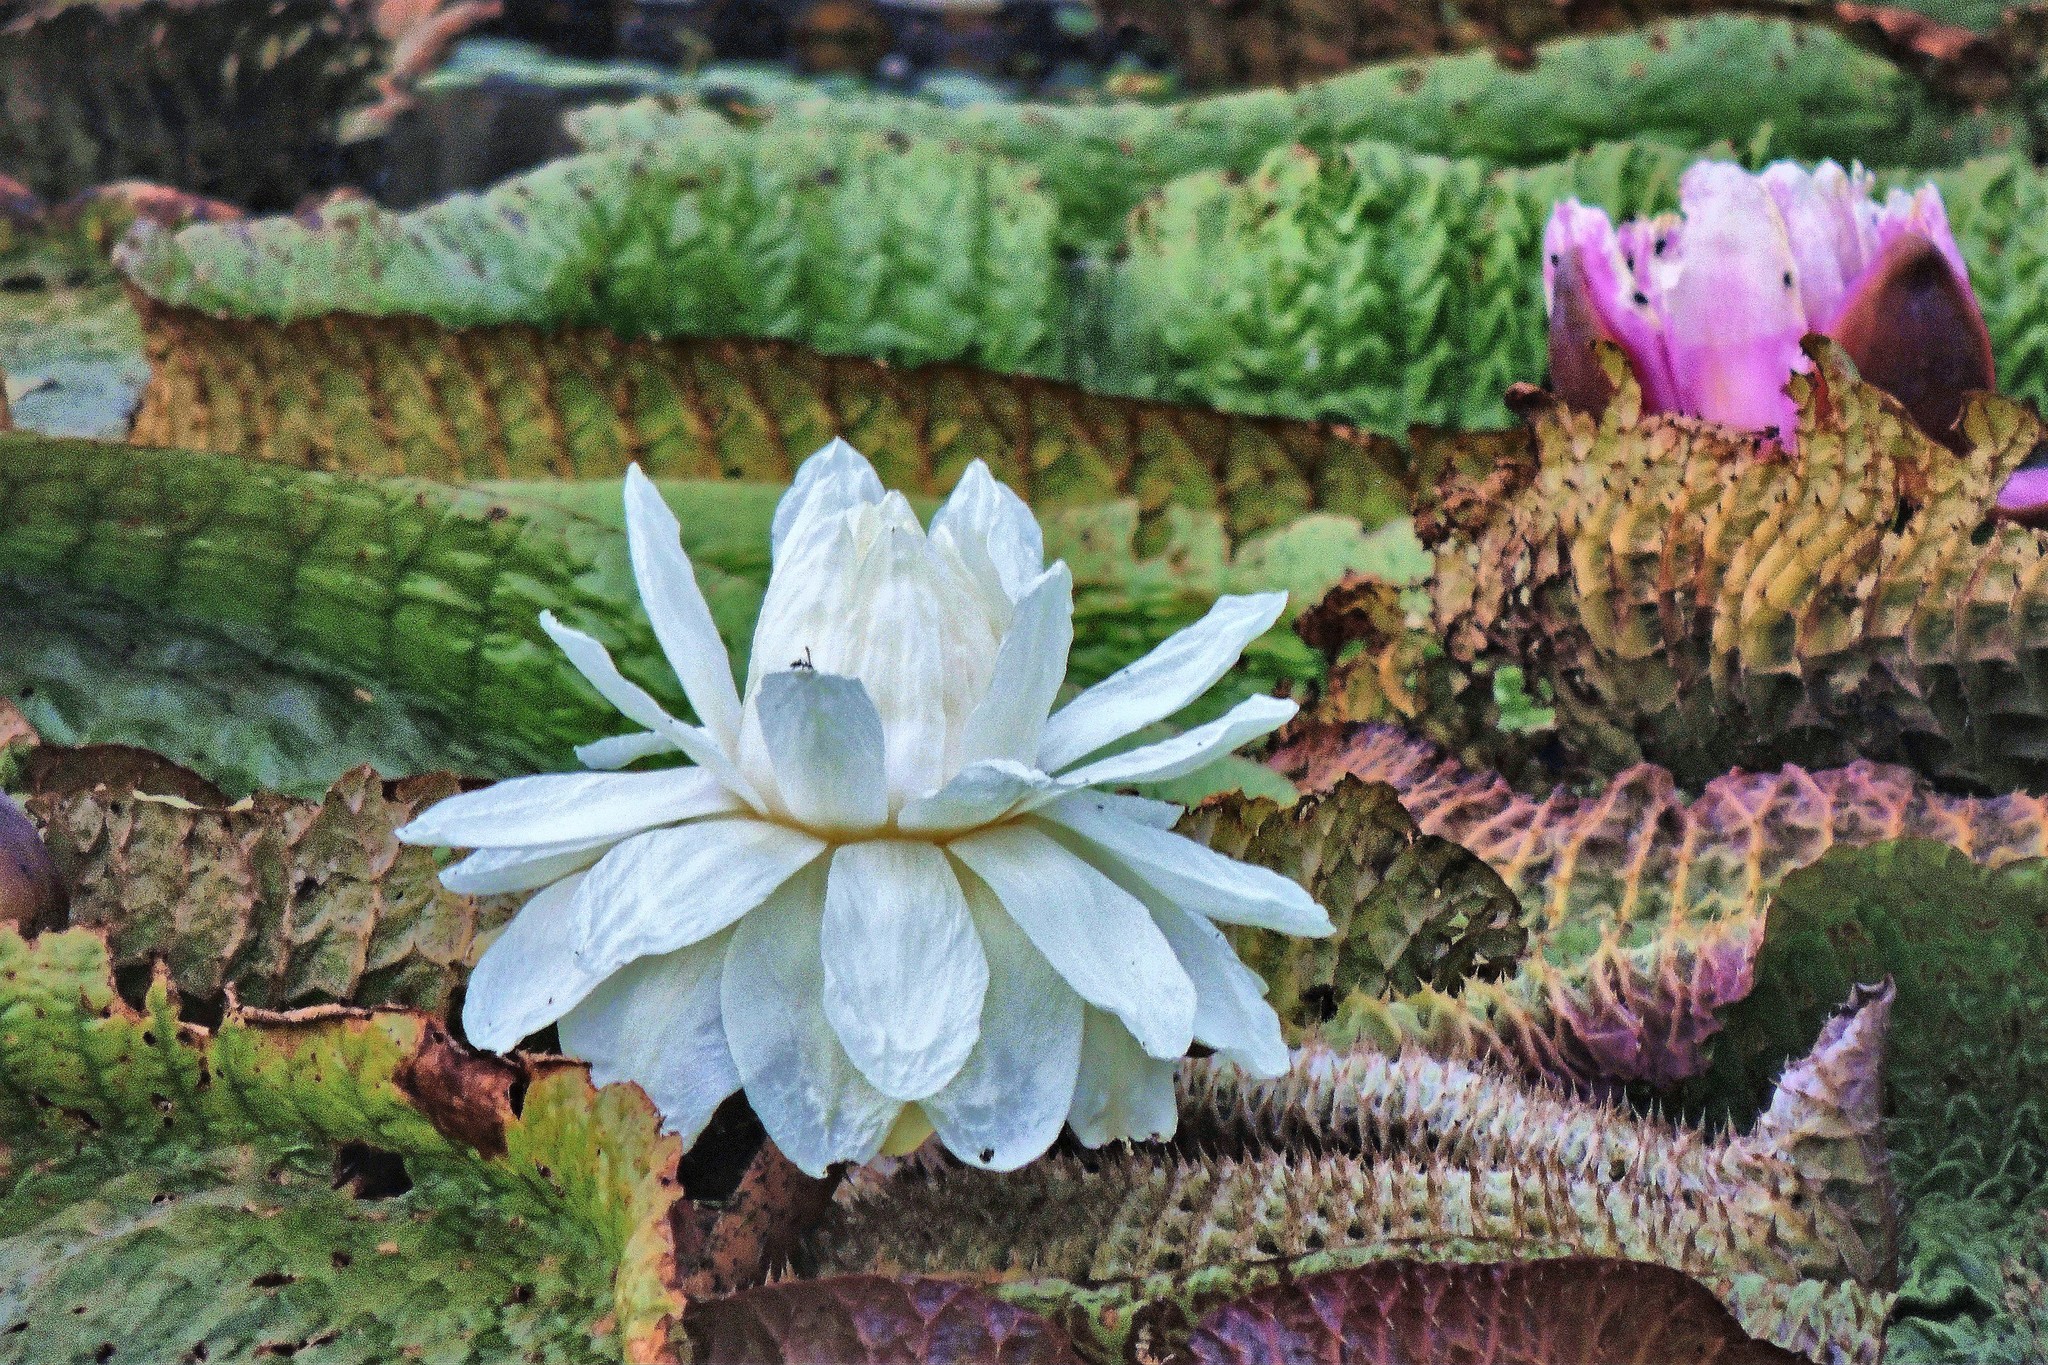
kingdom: Plantae
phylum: Tracheophyta
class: Magnoliopsida
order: Nymphaeales
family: Nymphaeaceae
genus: Victoria
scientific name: Victoria cruziana
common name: Santa cruz water-lily
